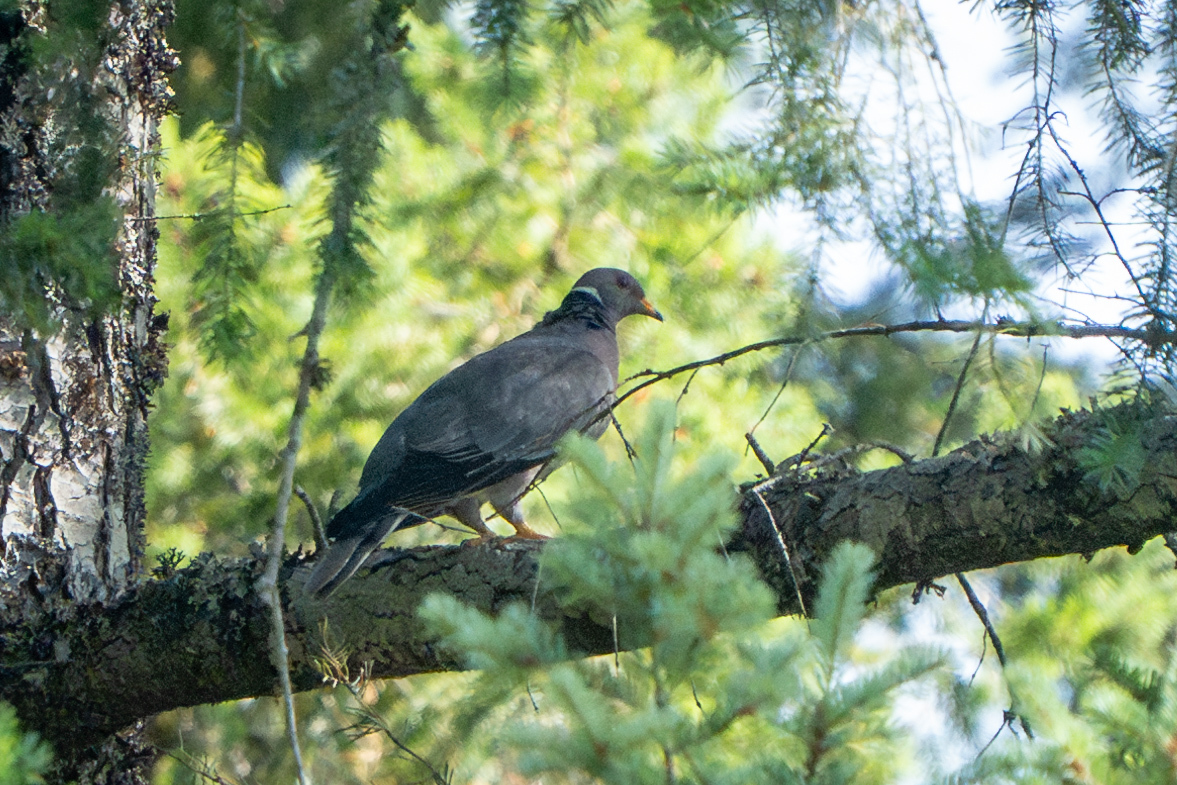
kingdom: Animalia
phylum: Chordata
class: Aves
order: Columbiformes
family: Columbidae
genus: Patagioenas
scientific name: Patagioenas fasciata
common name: Band-tailed pigeon
